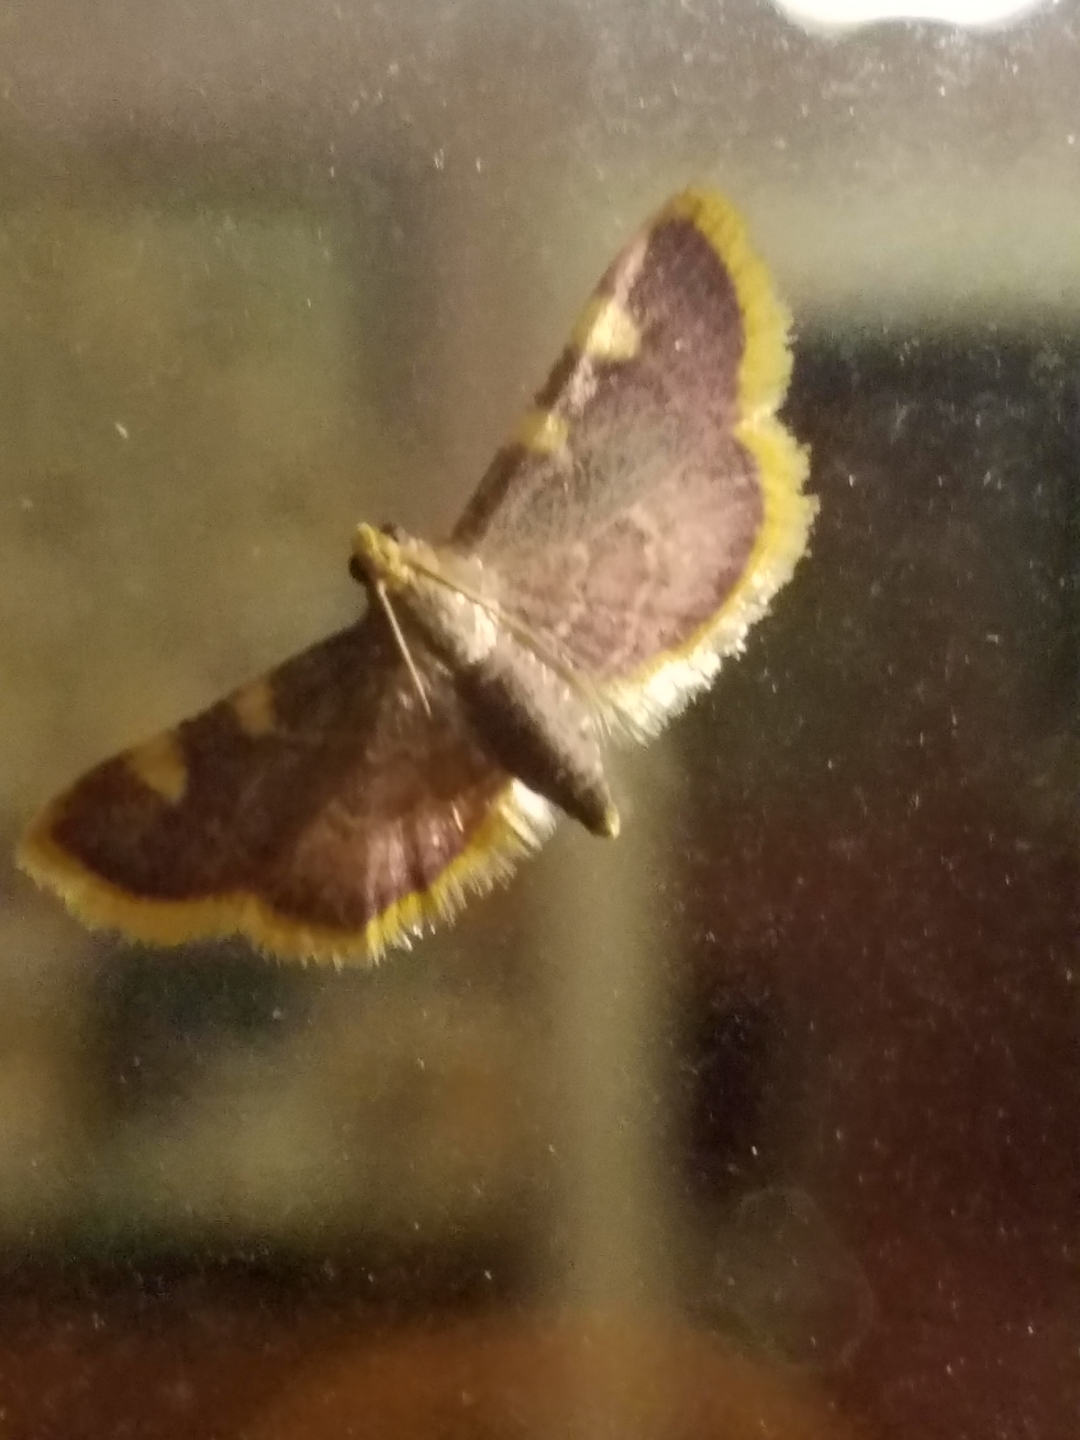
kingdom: Animalia
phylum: Arthropoda
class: Insecta
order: Lepidoptera
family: Pyralidae
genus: Hypsopygia
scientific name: Hypsopygia costalis
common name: Gold triangle
